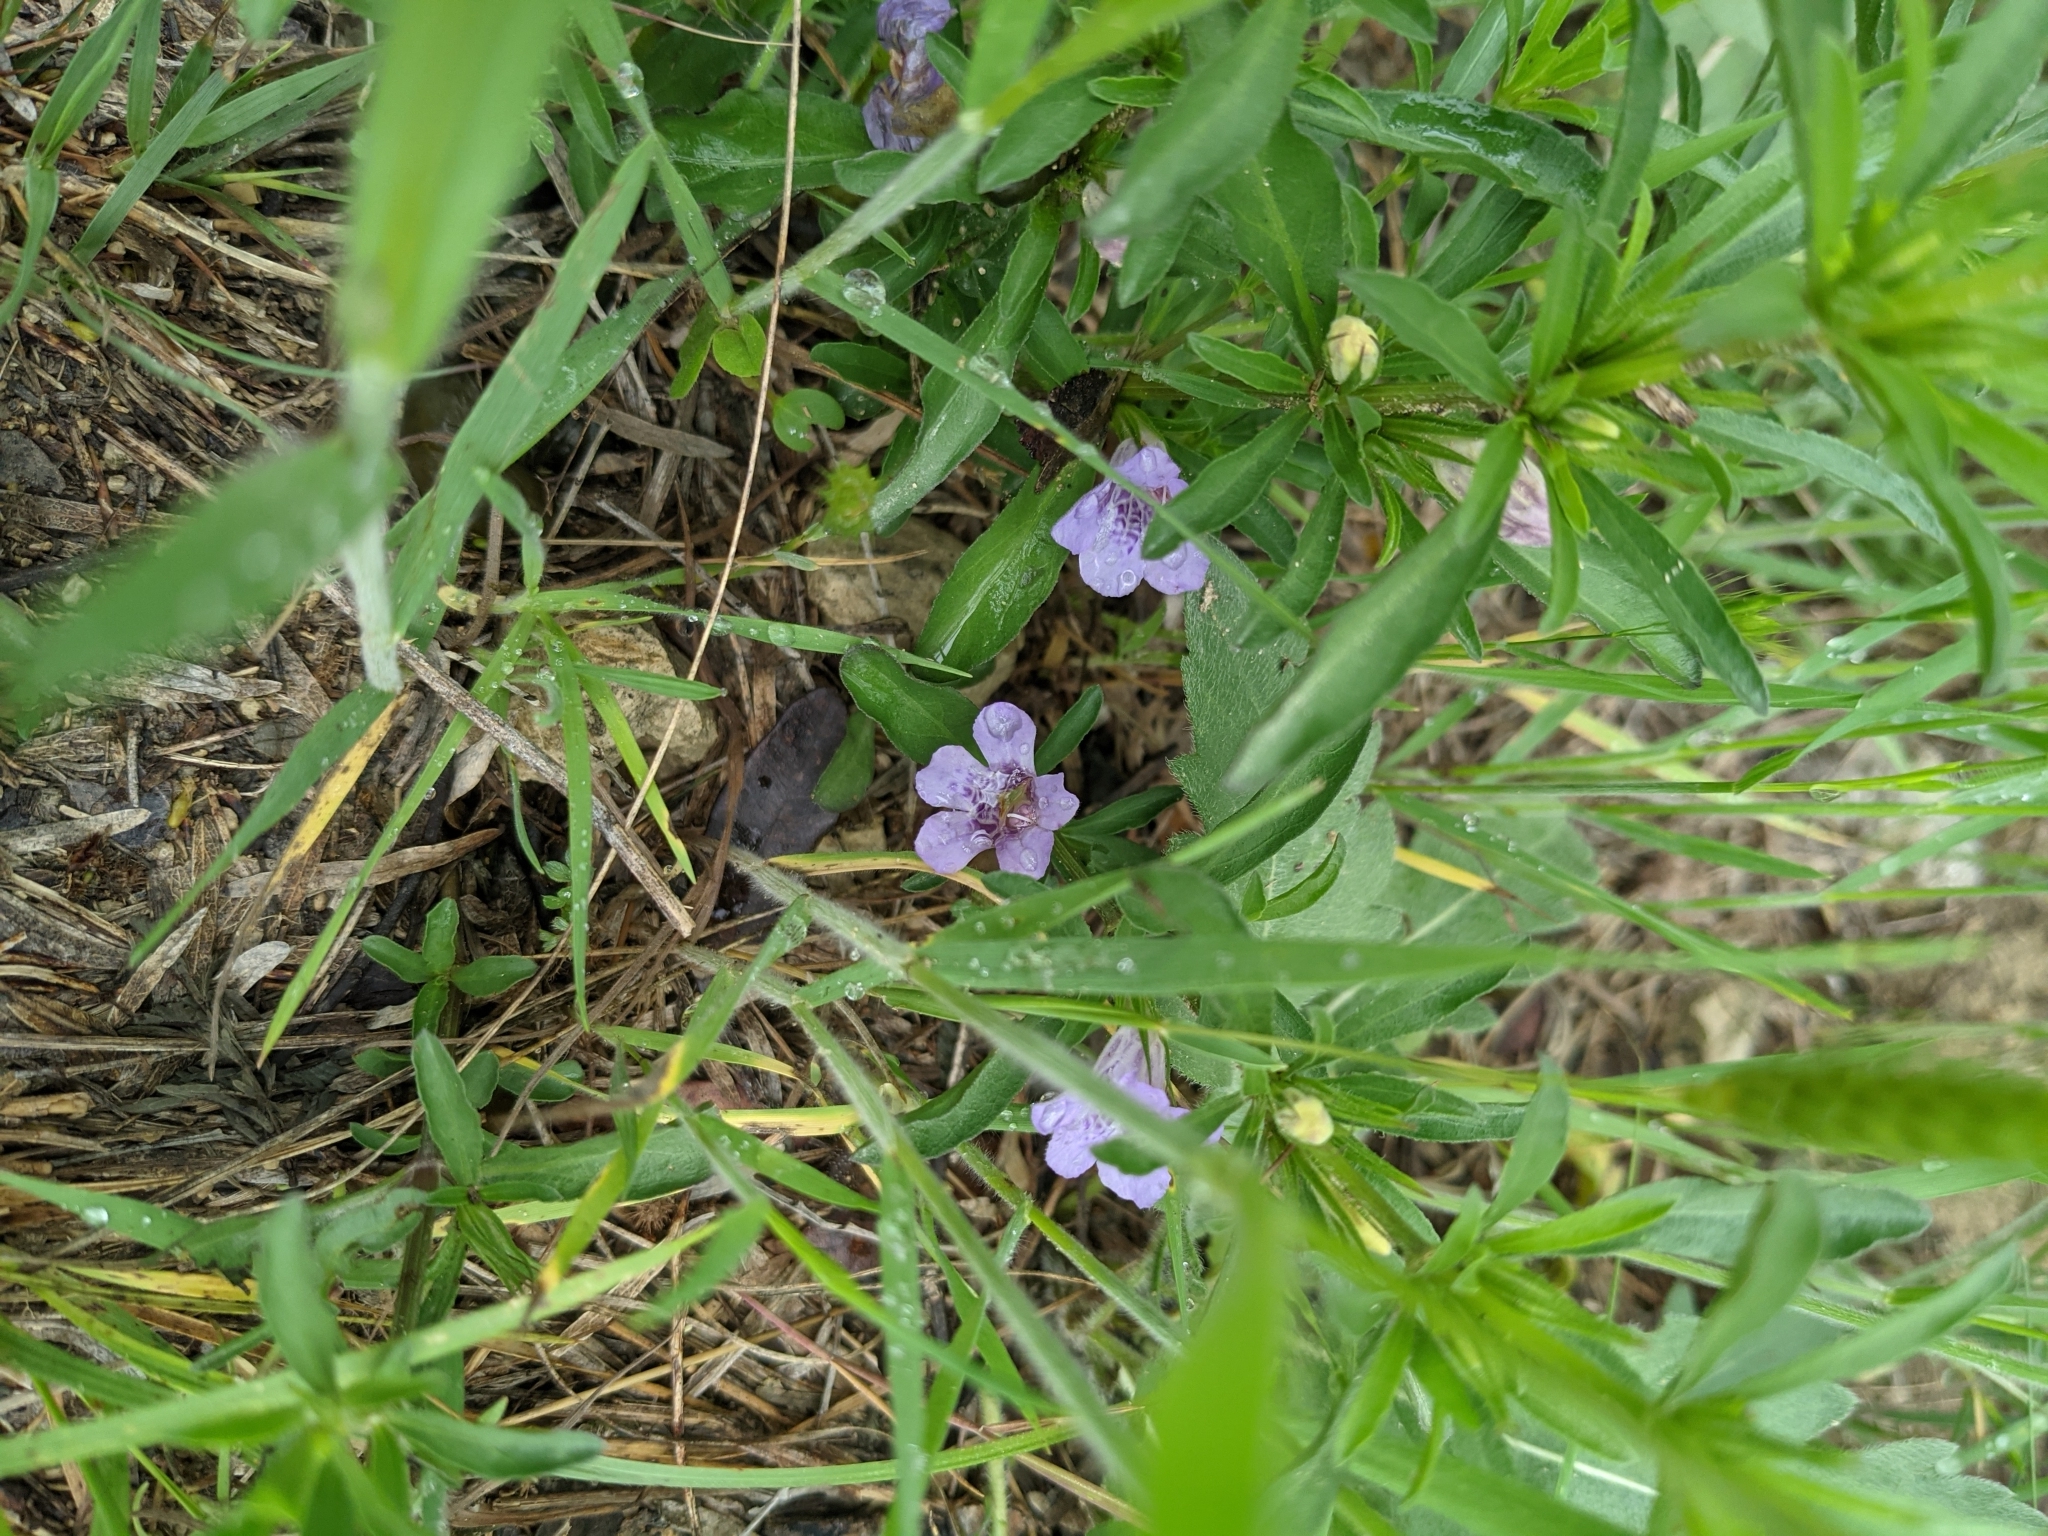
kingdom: Plantae
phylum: Tracheophyta
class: Magnoliopsida
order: Lamiales
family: Acanthaceae
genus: Dyschoriste
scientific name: Dyschoriste linearis
